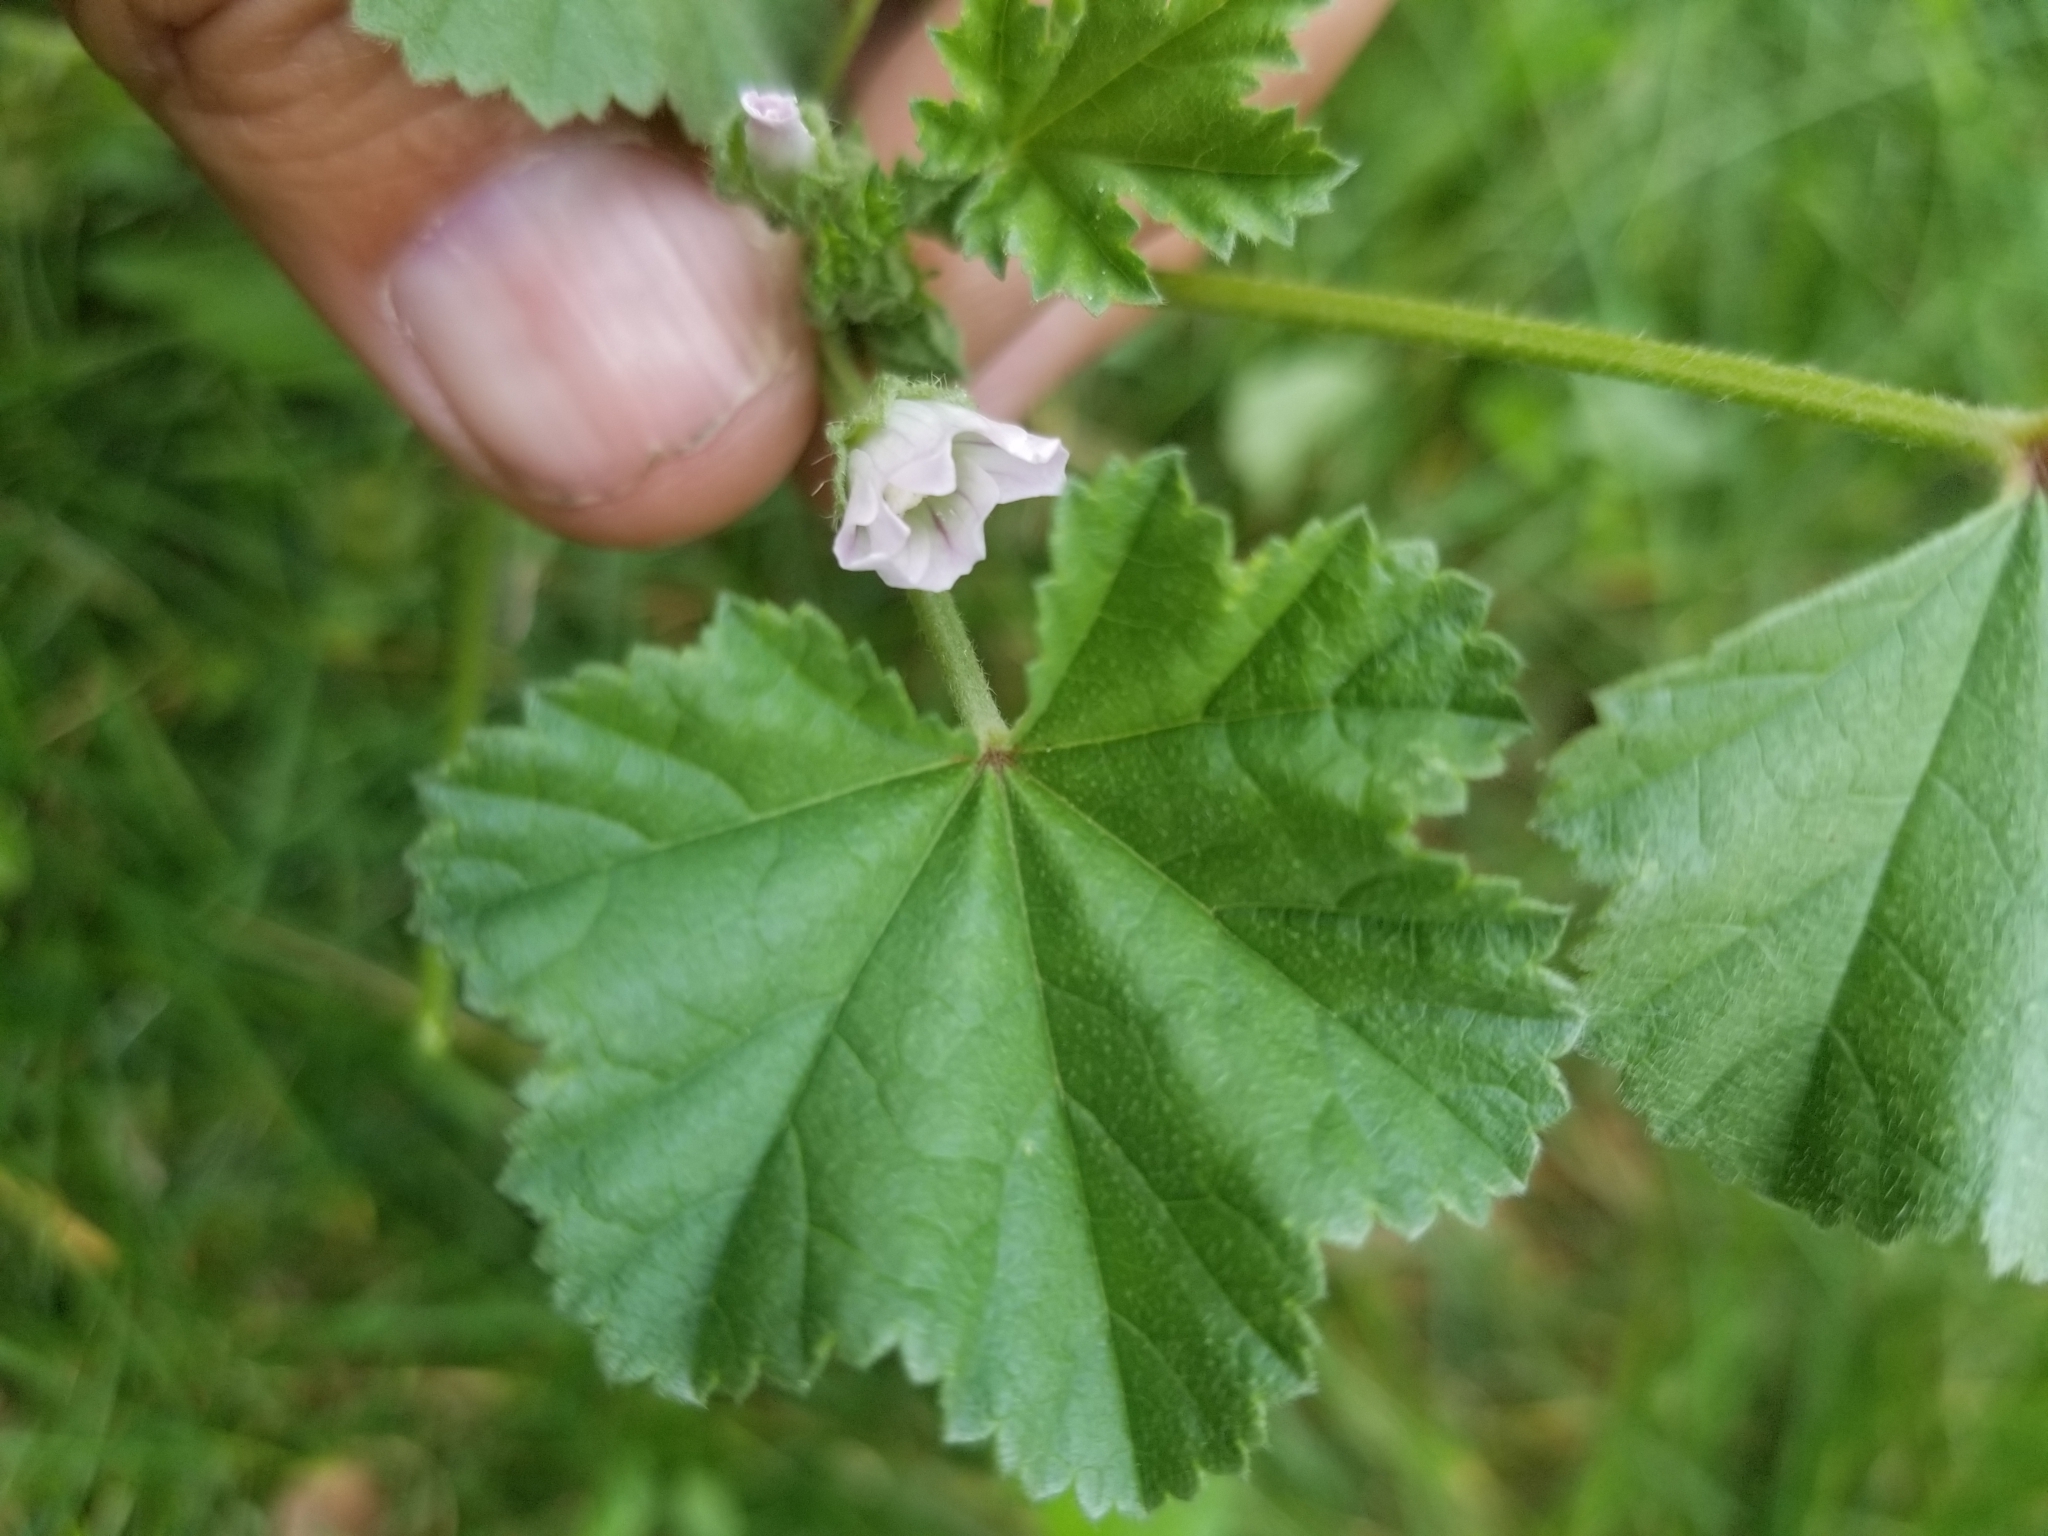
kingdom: Plantae
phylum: Tracheophyta
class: Magnoliopsida
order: Malvales
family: Malvaceae
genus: Malva
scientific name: Malva neglecta
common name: Common mallow
